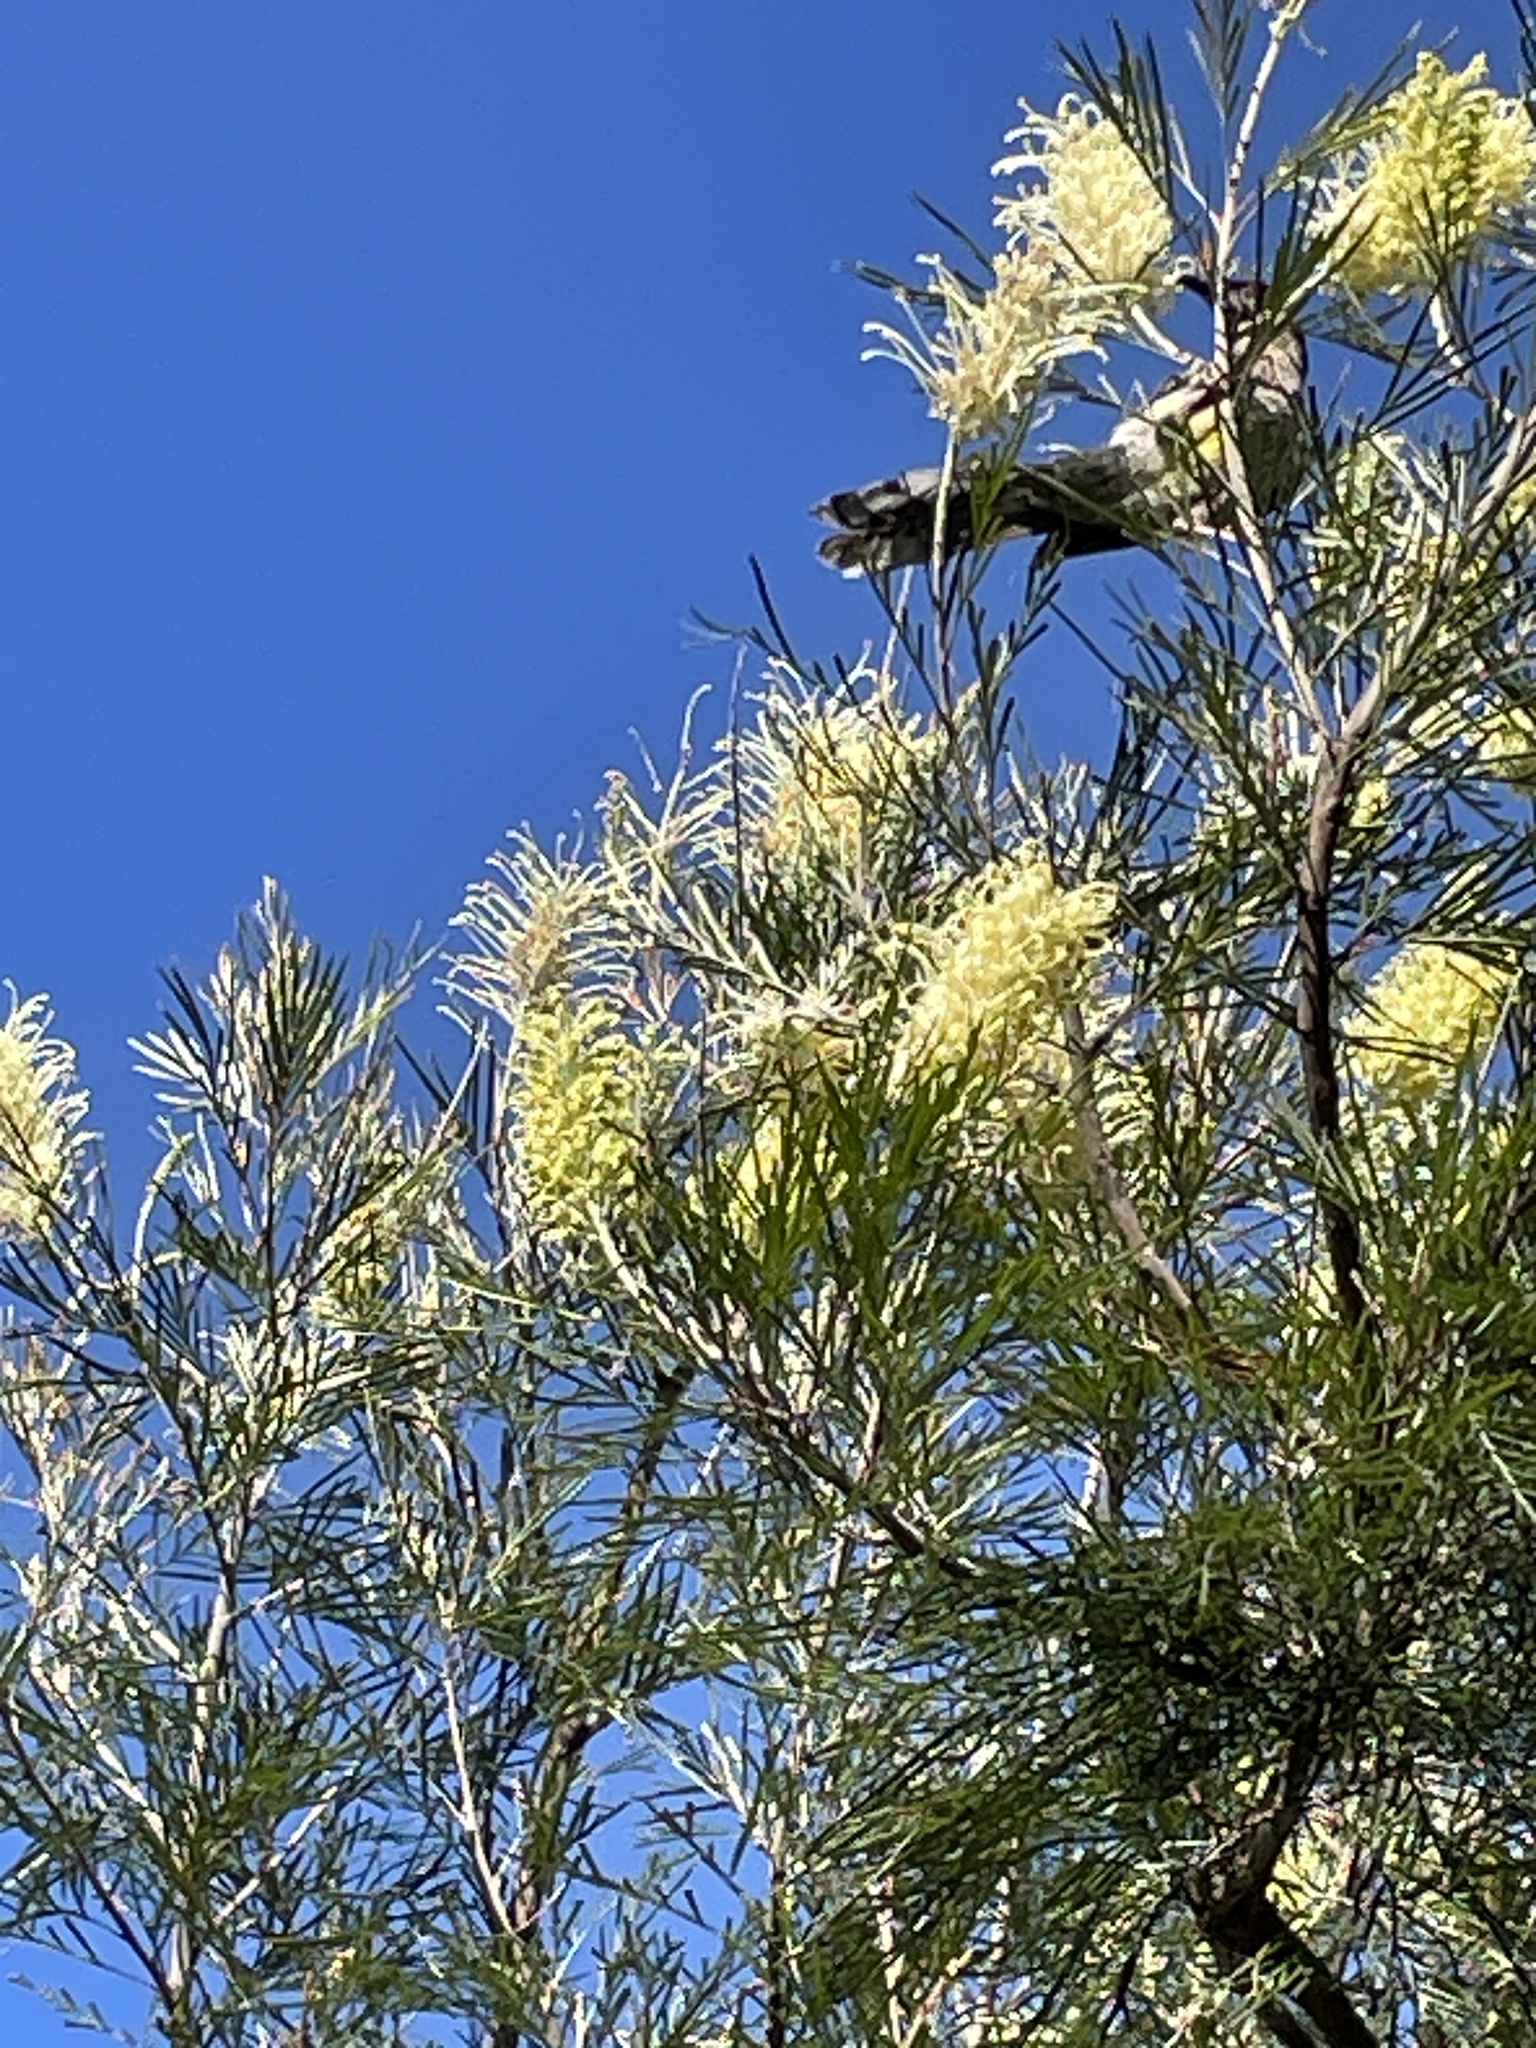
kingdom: Animalia
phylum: Chordata
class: Aves
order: Passeriformes
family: Meliphagidae
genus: Anthochaera
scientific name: Anthochaera carunculata
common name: Red wattlebird
